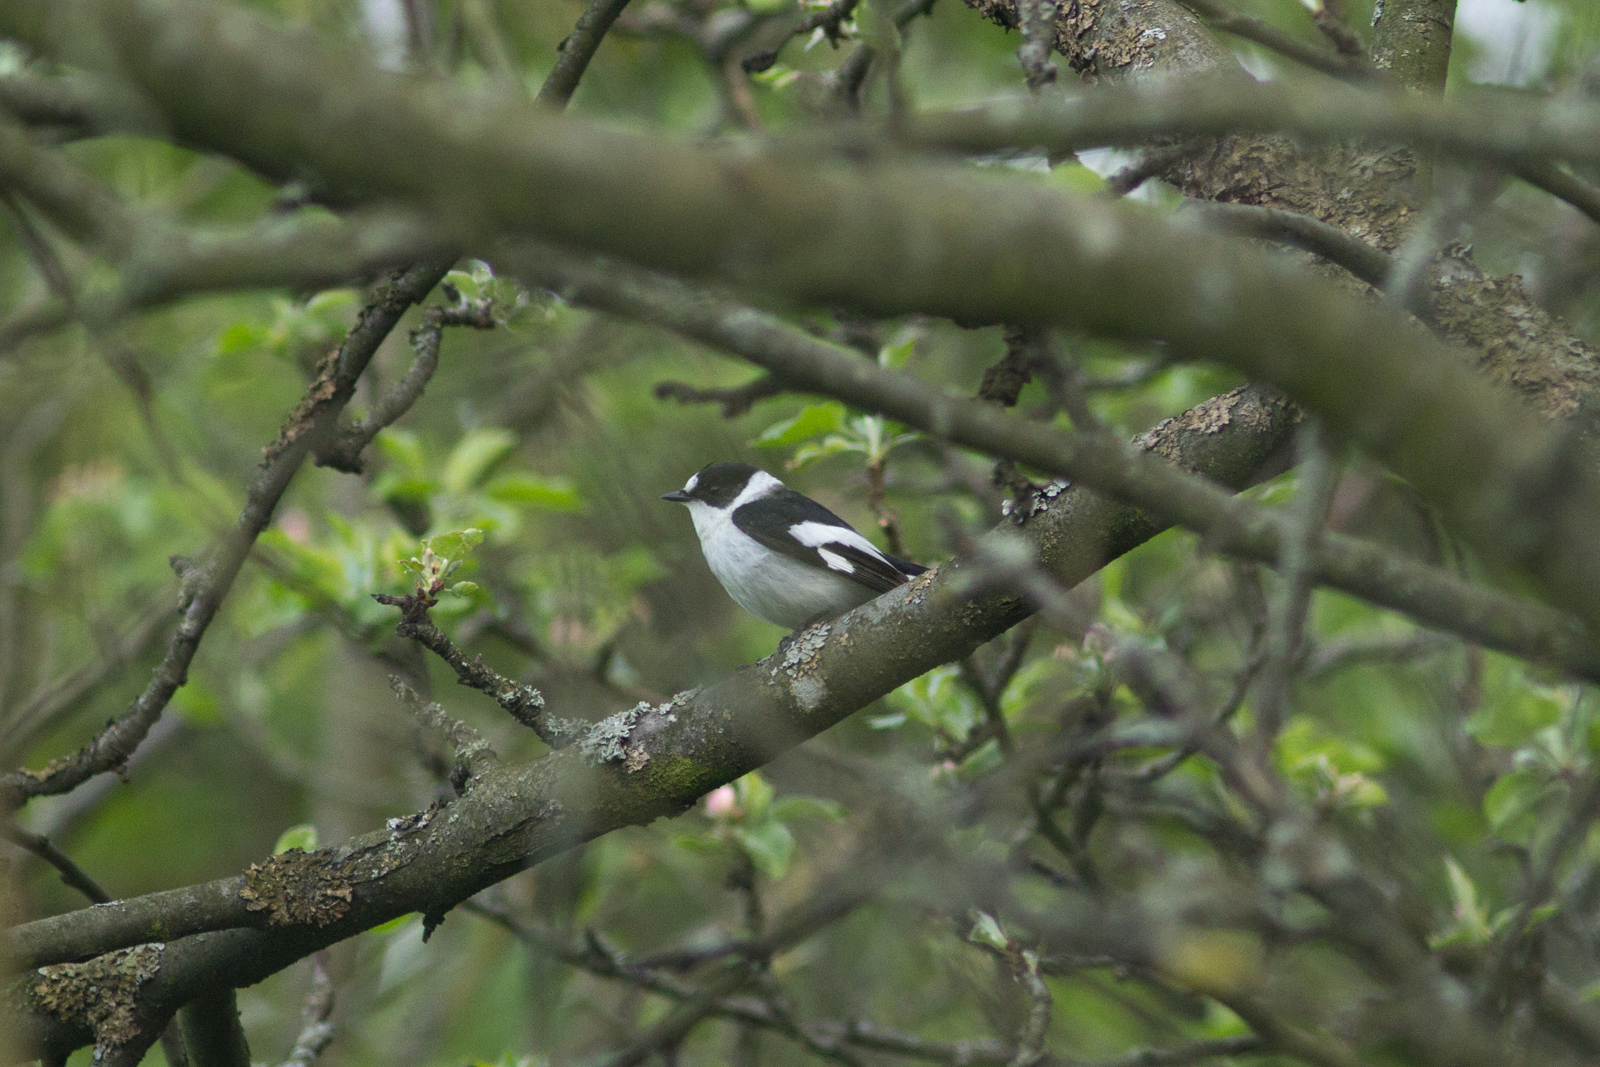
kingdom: Animalia
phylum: Chordata
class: Aves
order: Passeriformes
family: Muscicapidae
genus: Ficedula
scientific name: Ficedula albicollis
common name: Collared flycatcher
